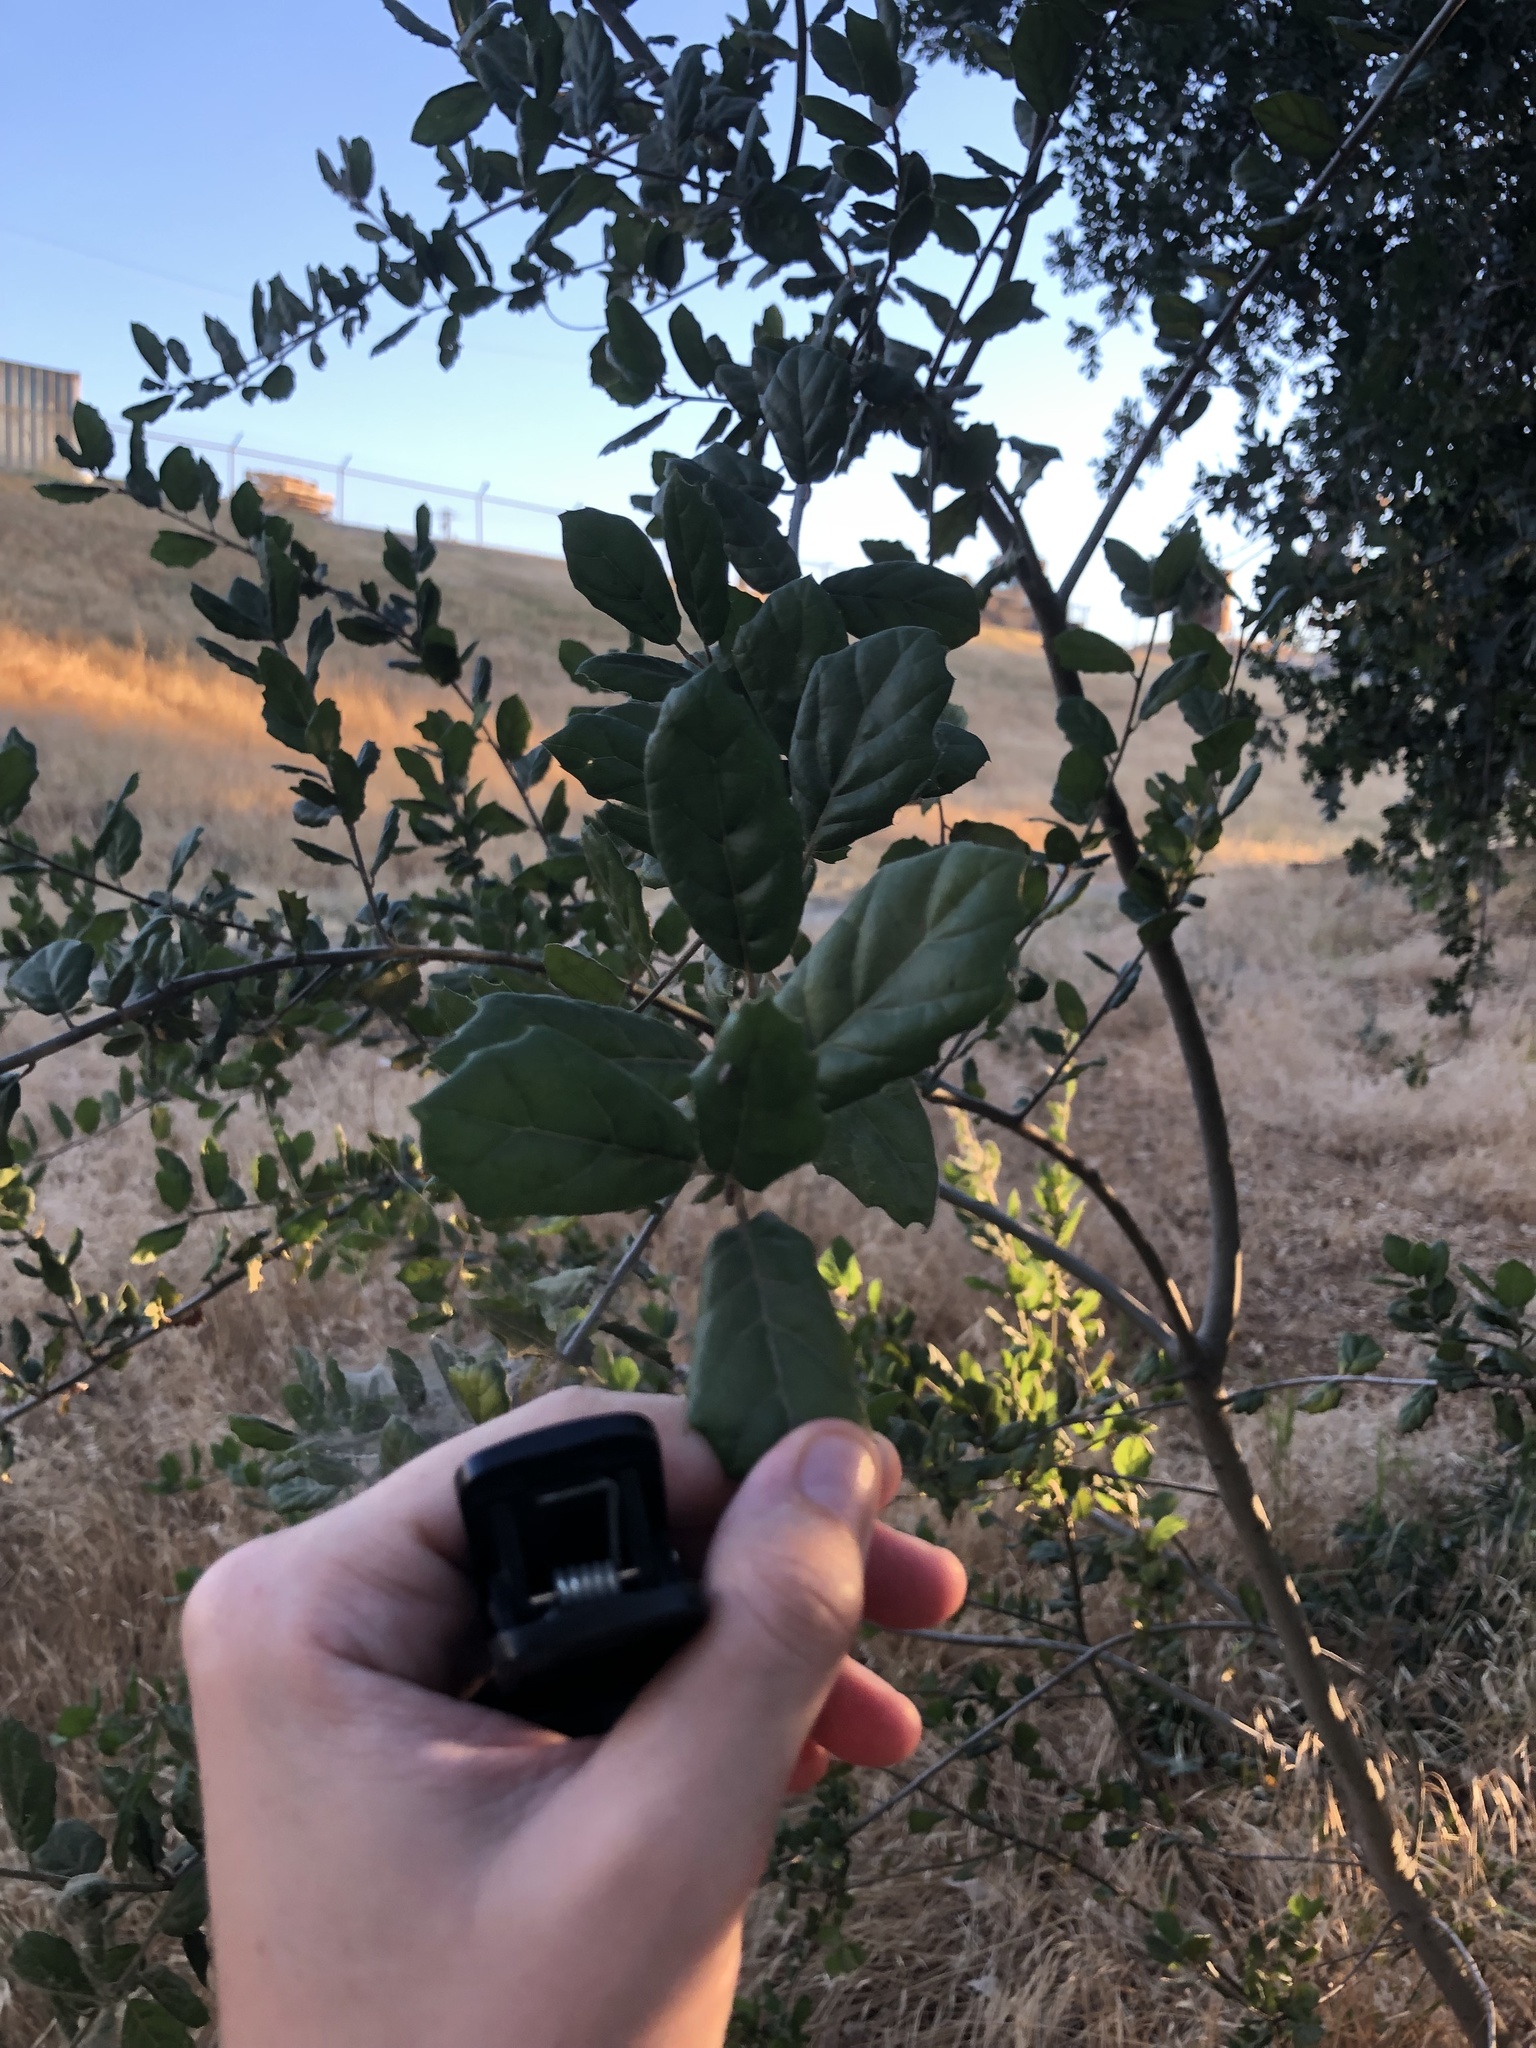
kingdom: Plantae
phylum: Tracheophyta
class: Magnoliopsida
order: Fagales
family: Fagaceae
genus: Quercus
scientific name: Quercus agrifolia
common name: California live oak
